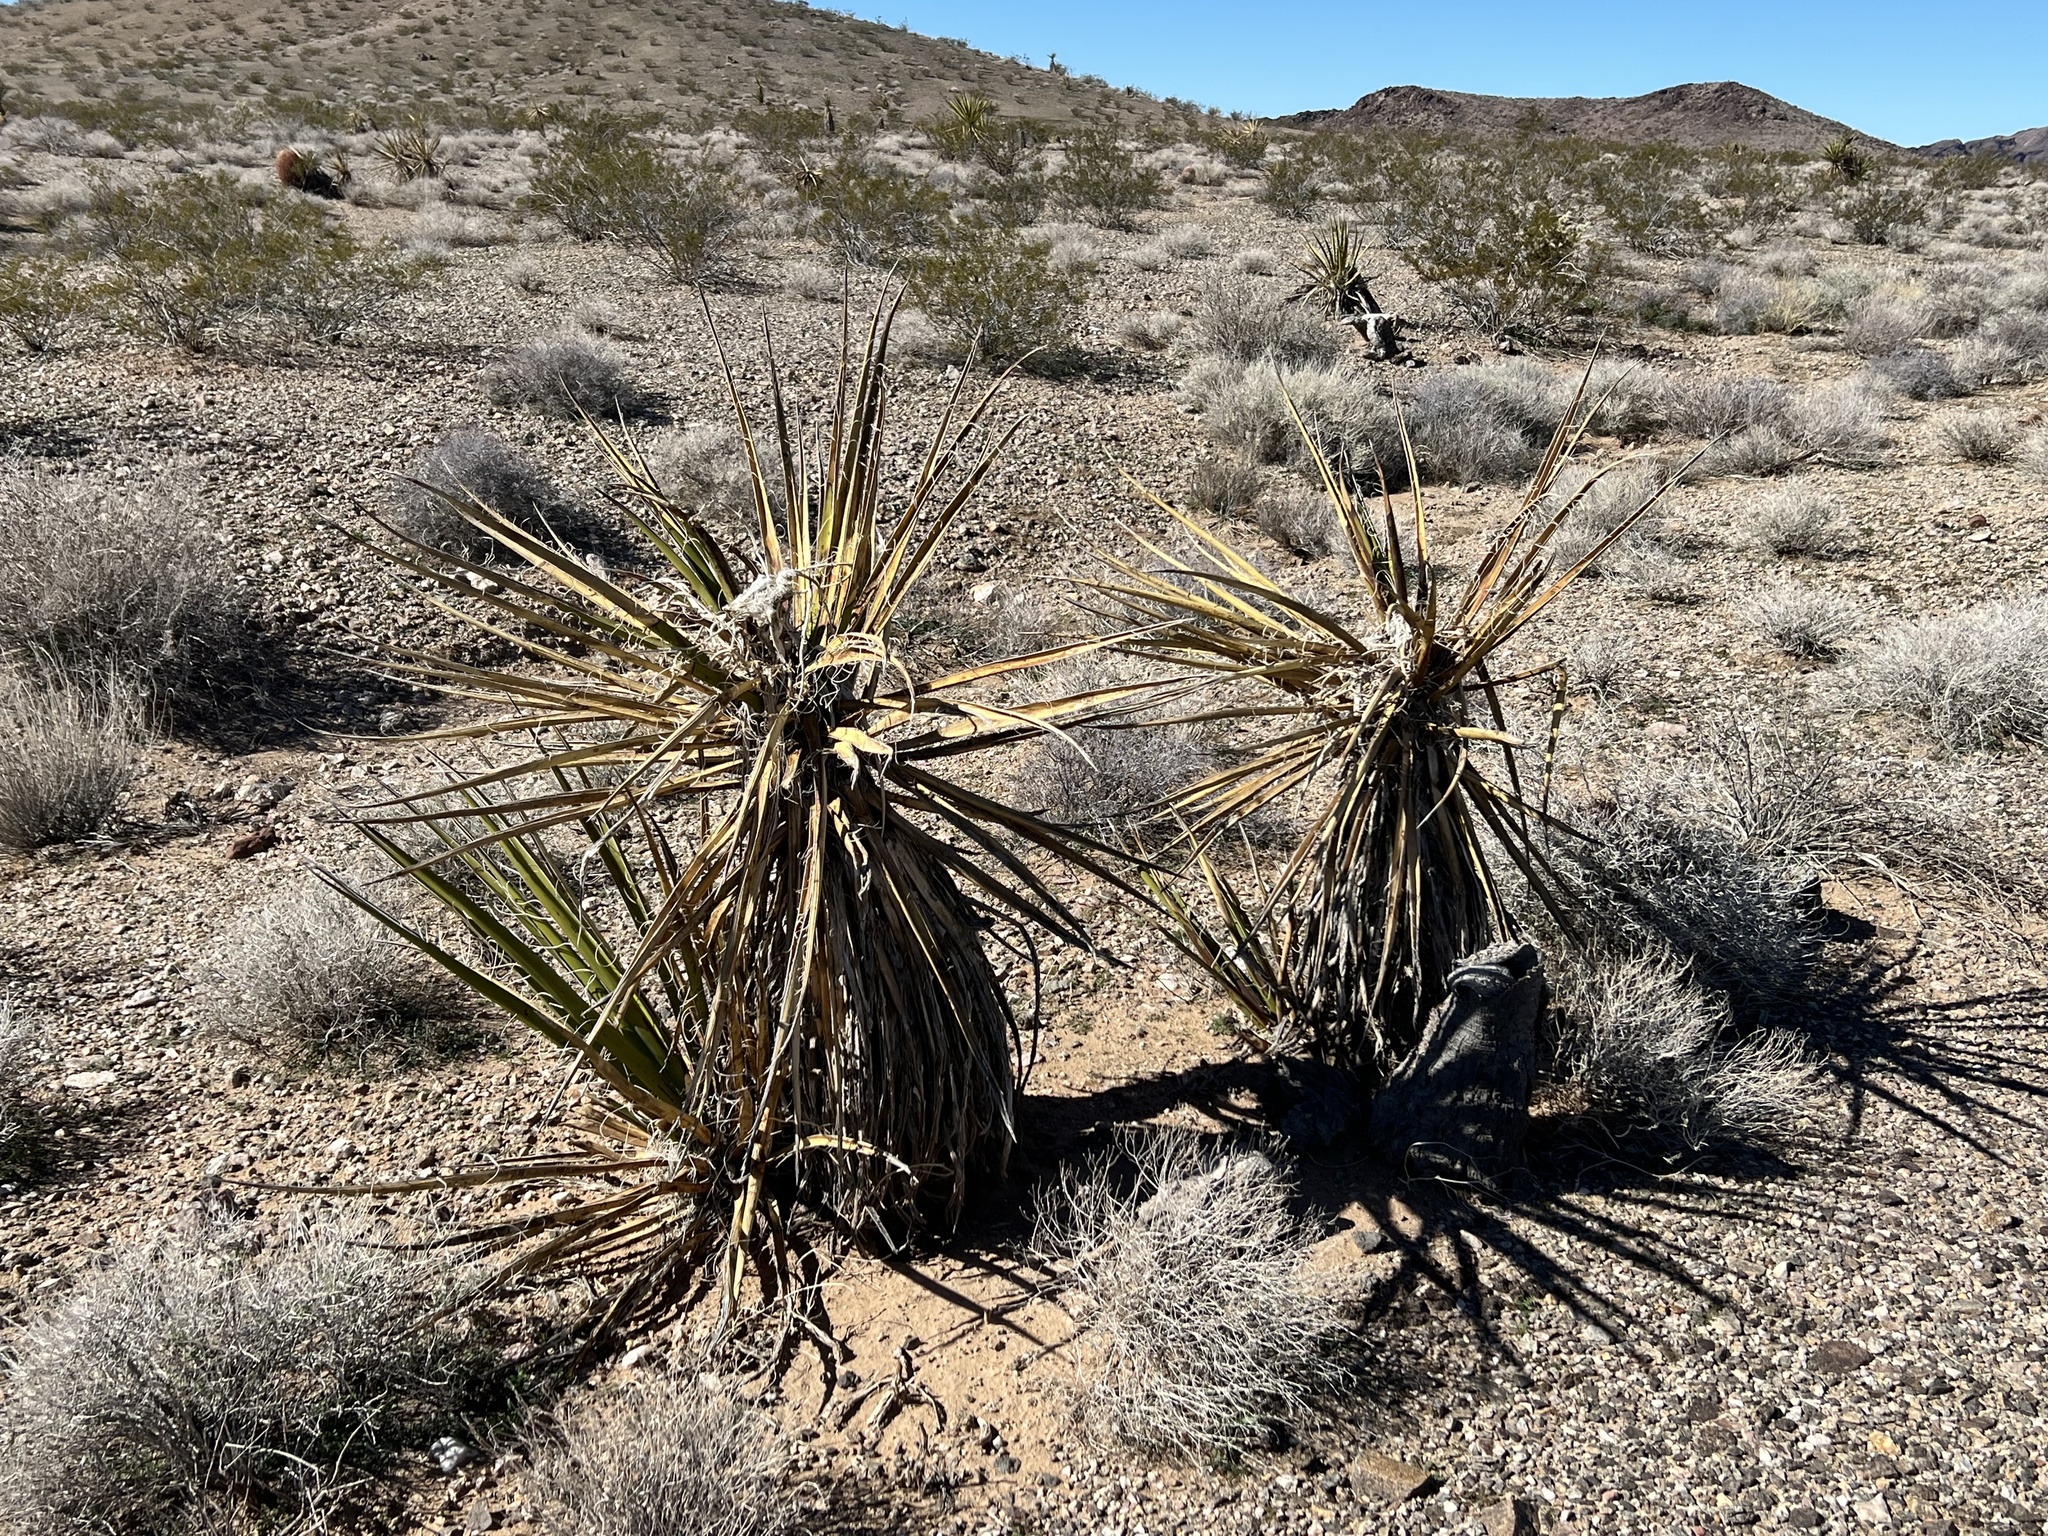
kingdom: Plantae
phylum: Tracheophyta
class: Liliopsida
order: Asparagales
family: Asparagaceae
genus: Yucca
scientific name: Yucca schidigera
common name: Mojave yucca
